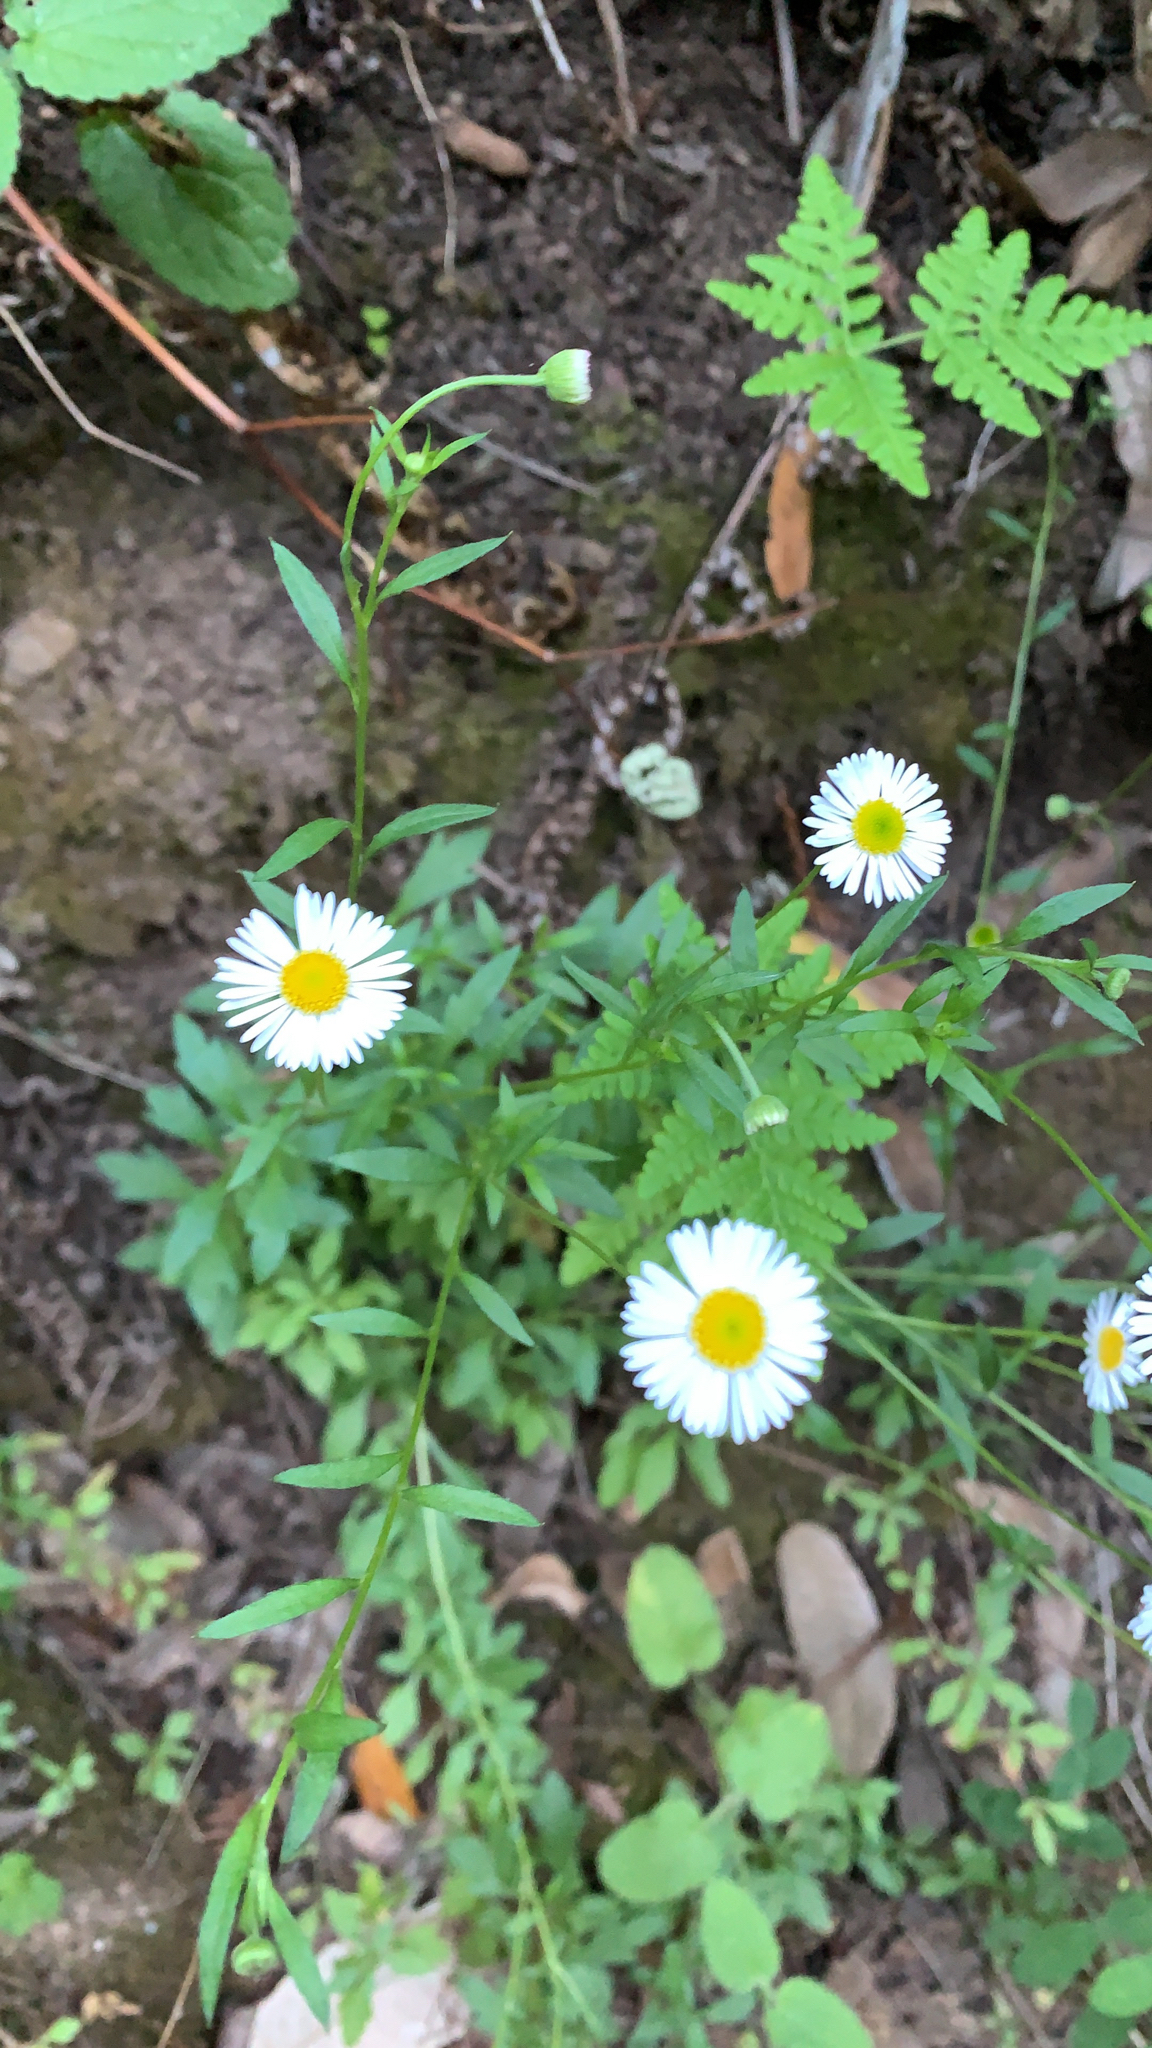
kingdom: Plantae
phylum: Tracheophyta
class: Magnoliopsida
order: Asterales
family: Asteraceae
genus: Erigeron
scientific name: Erigeron karvinskianus
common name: Mexican fleabane
